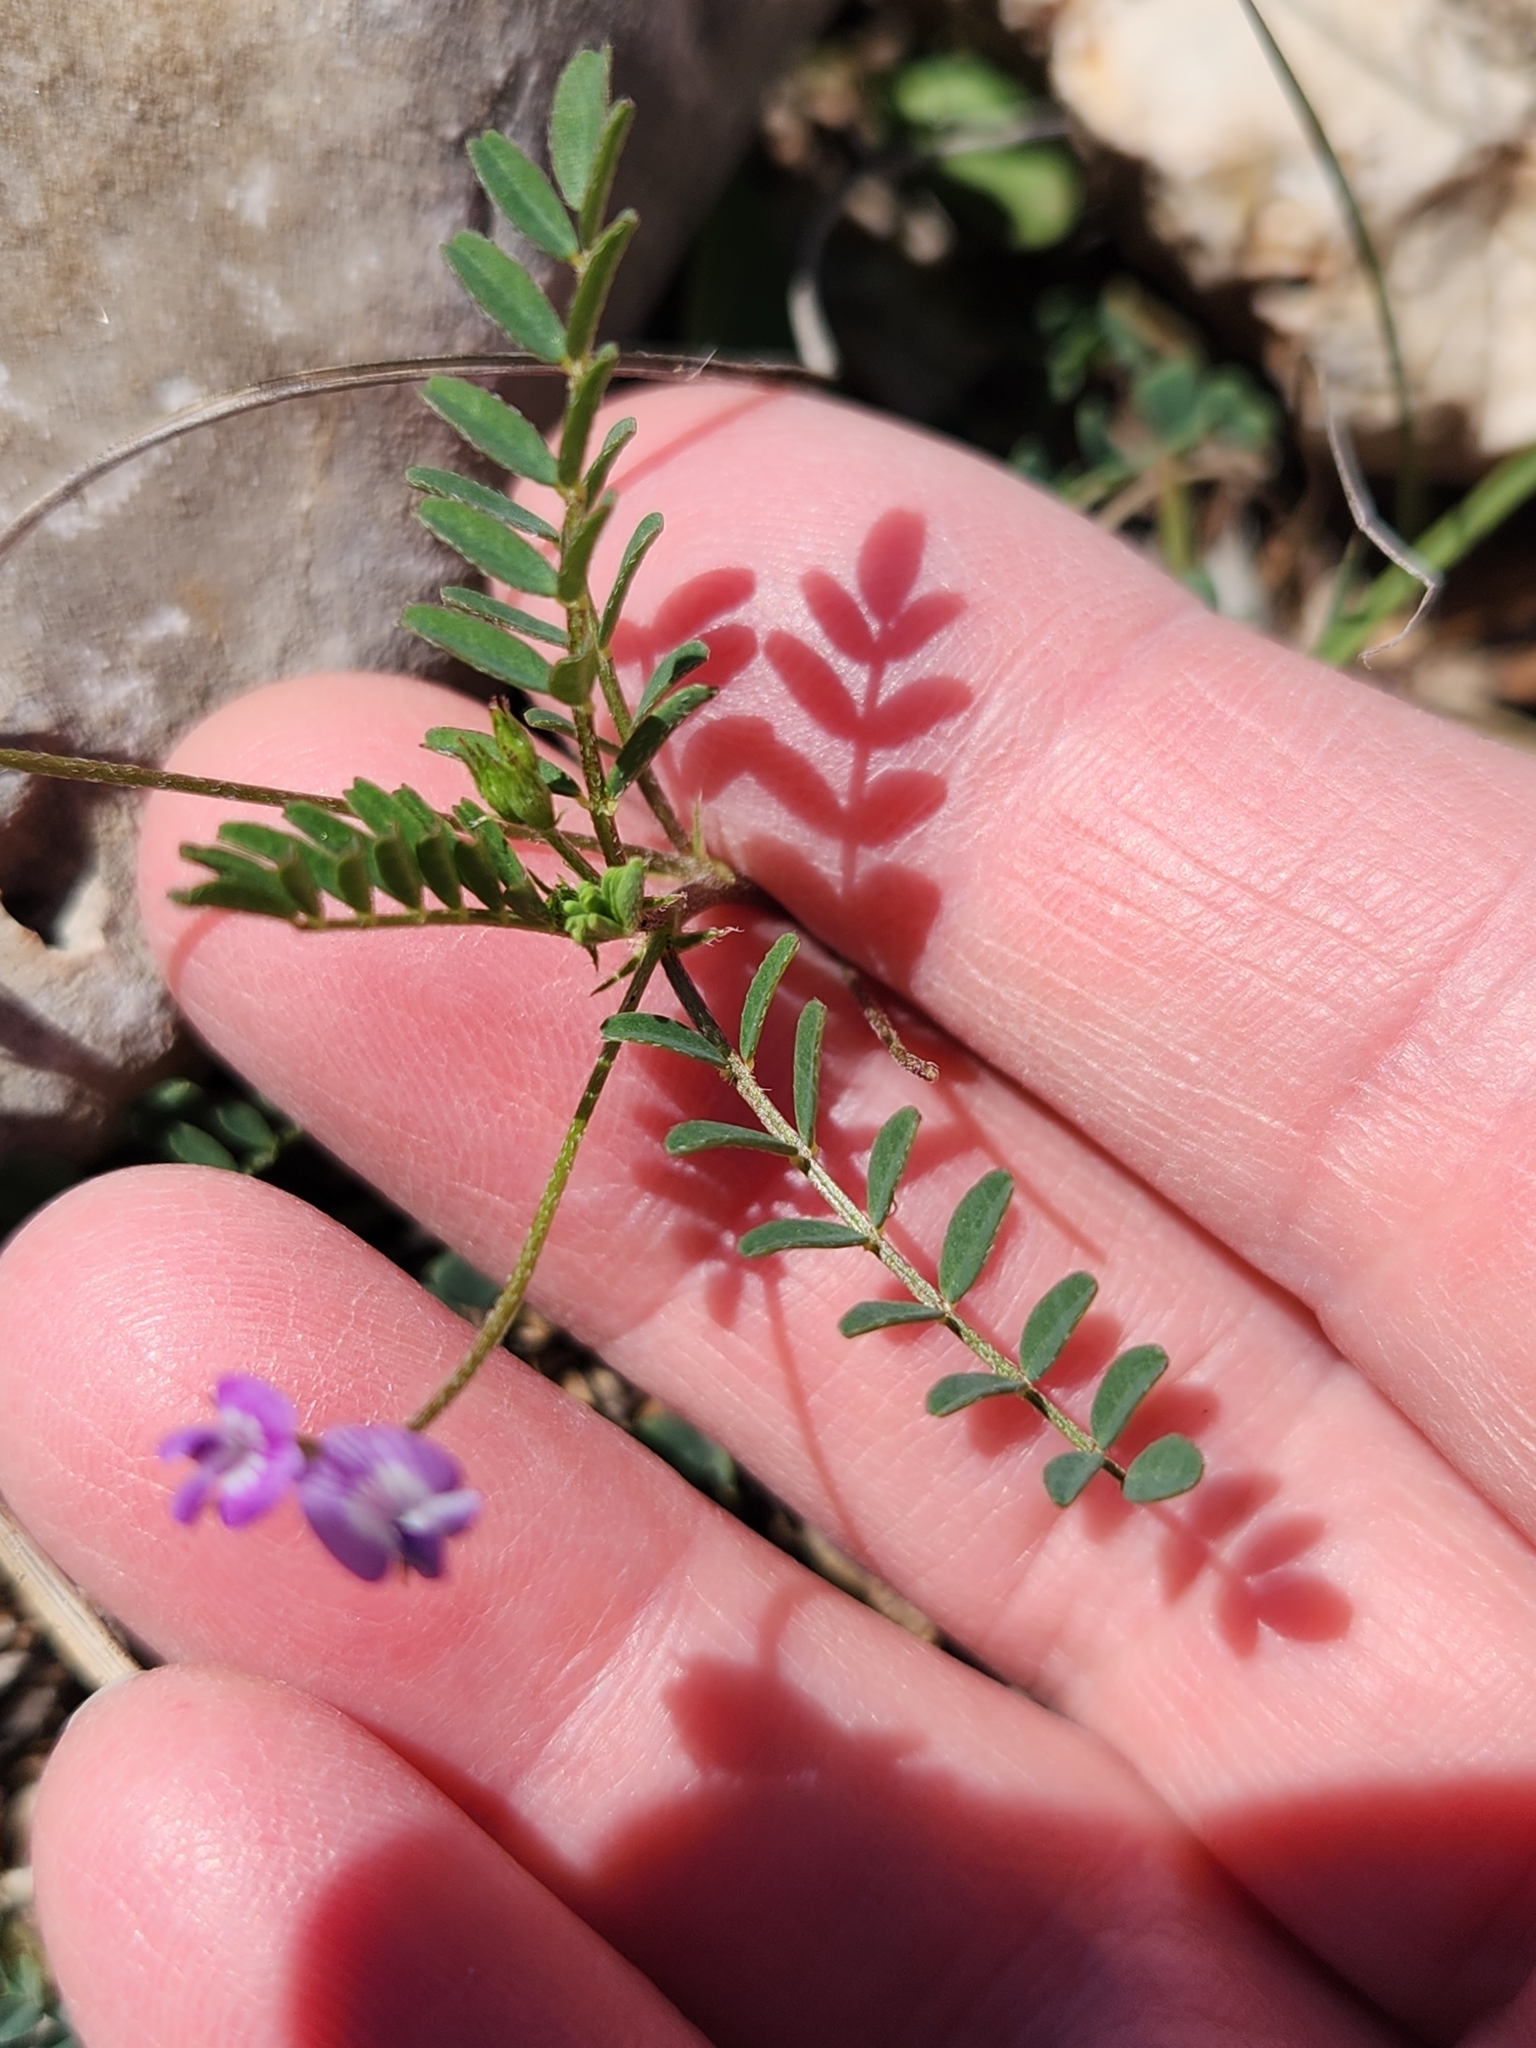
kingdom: Plantae
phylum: Tracheophyta
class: Magnoliopsida
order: Fabales
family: Fabaceae
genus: Astragalus
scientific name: Astragalus nuttallianus
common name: Smallflowered milkvetch
